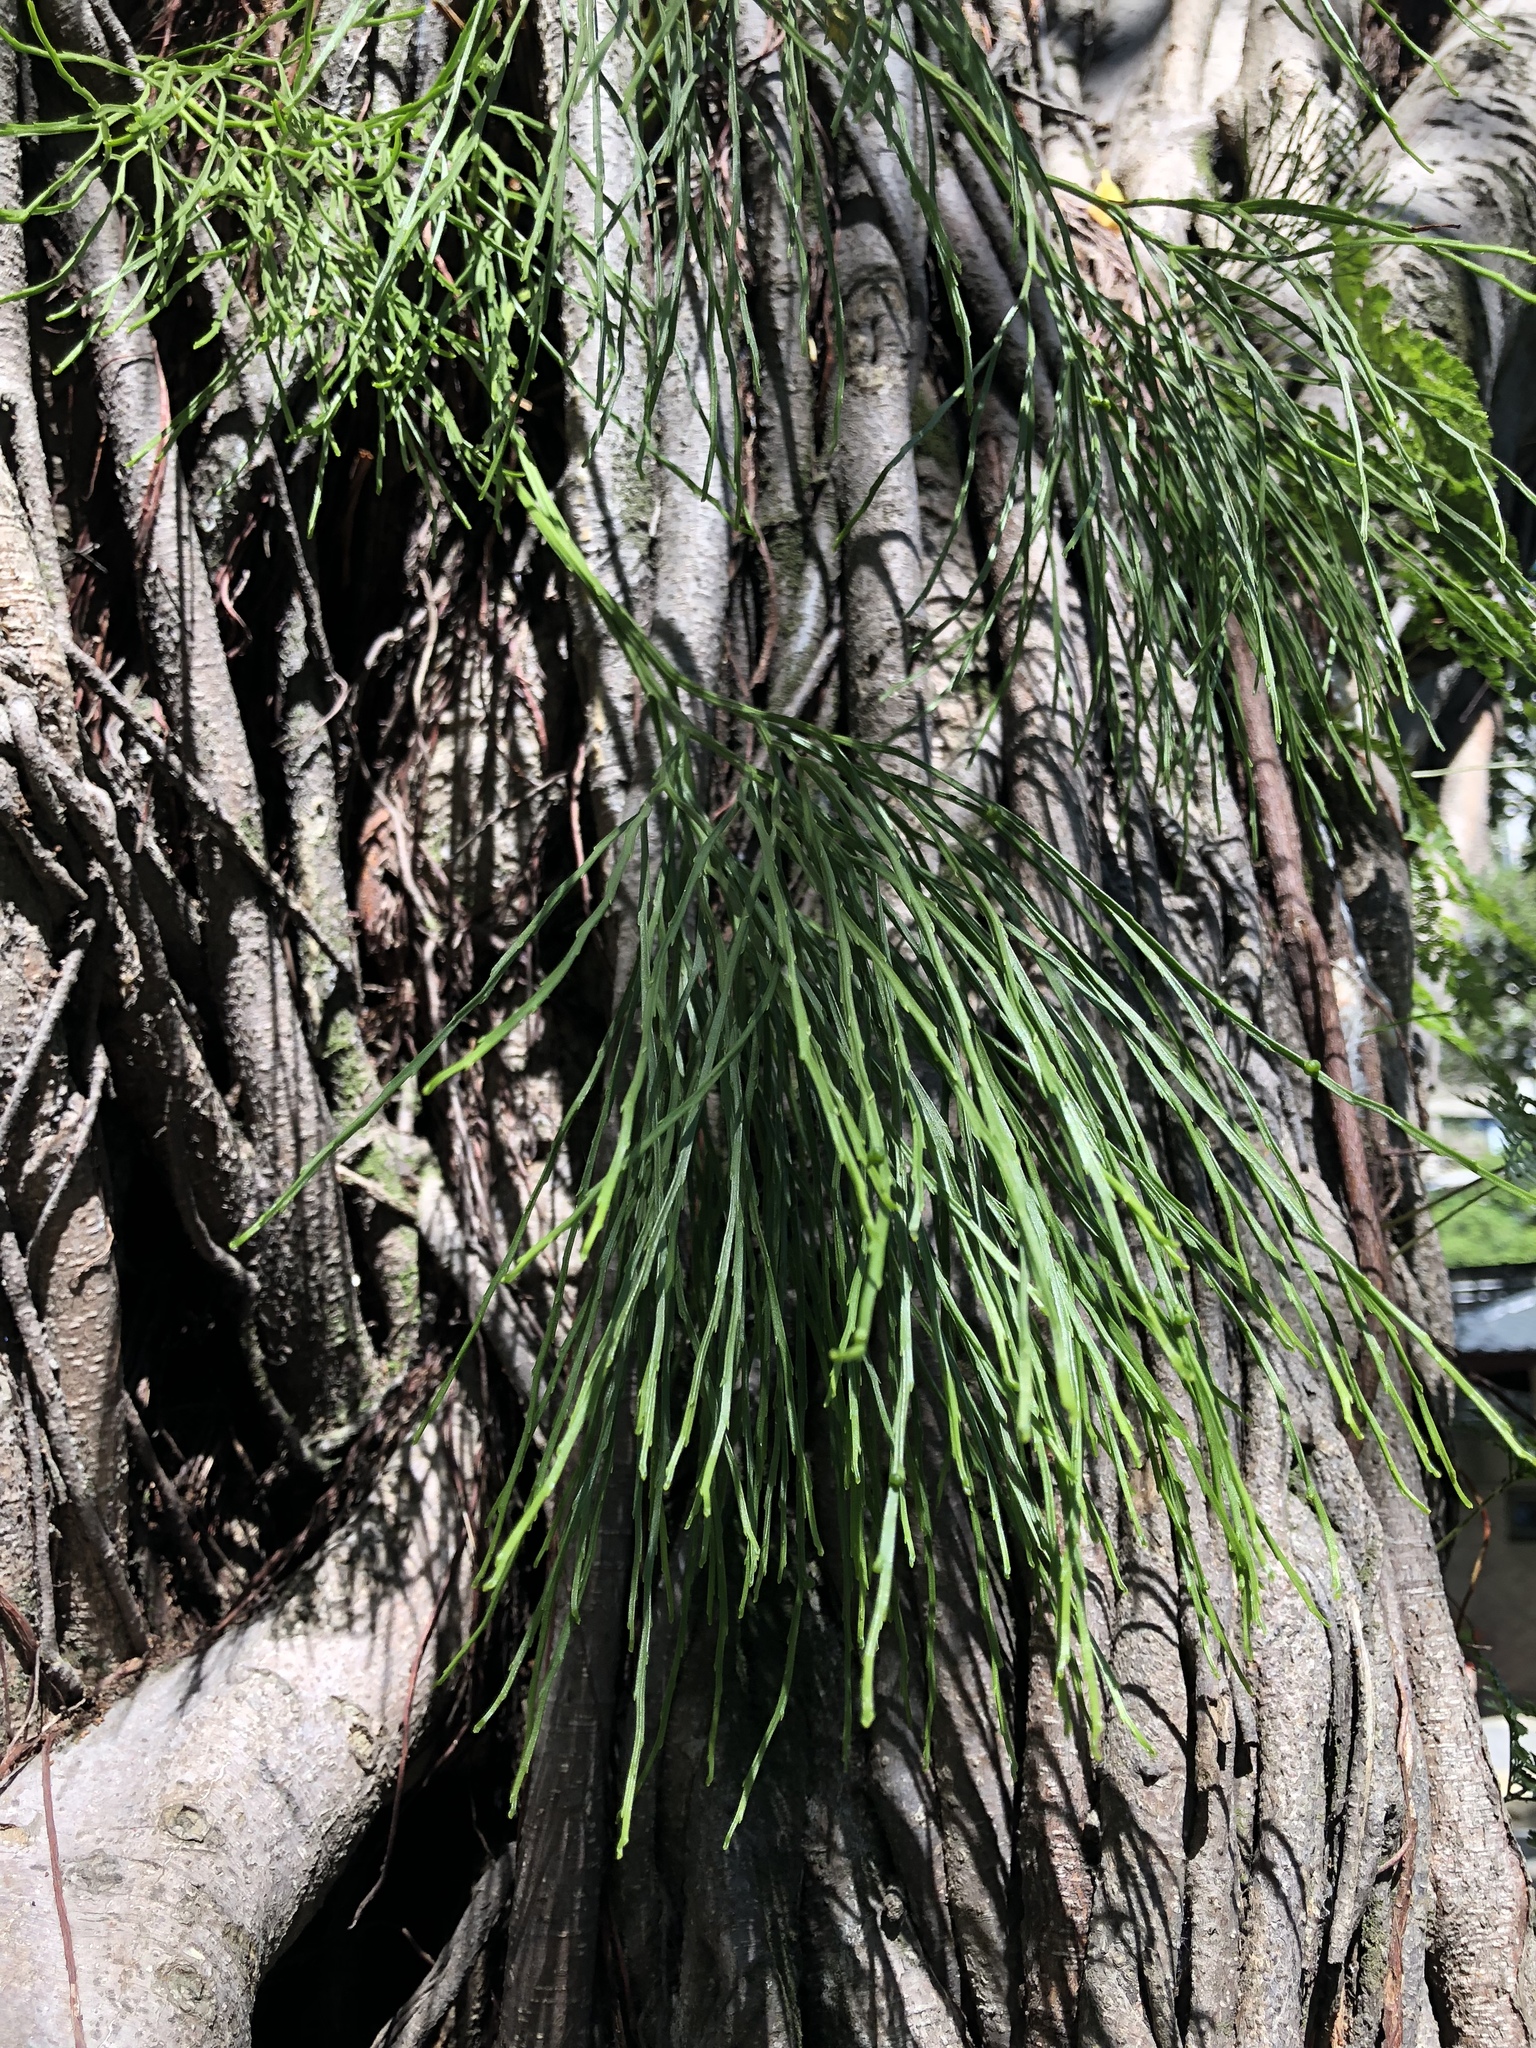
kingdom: Plantae
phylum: Tracheophyta
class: Polypodiopsida
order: Psilotales
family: Psilotaceae
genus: Psilotum
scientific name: Psilotum nudum
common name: Skeleton fork fern
